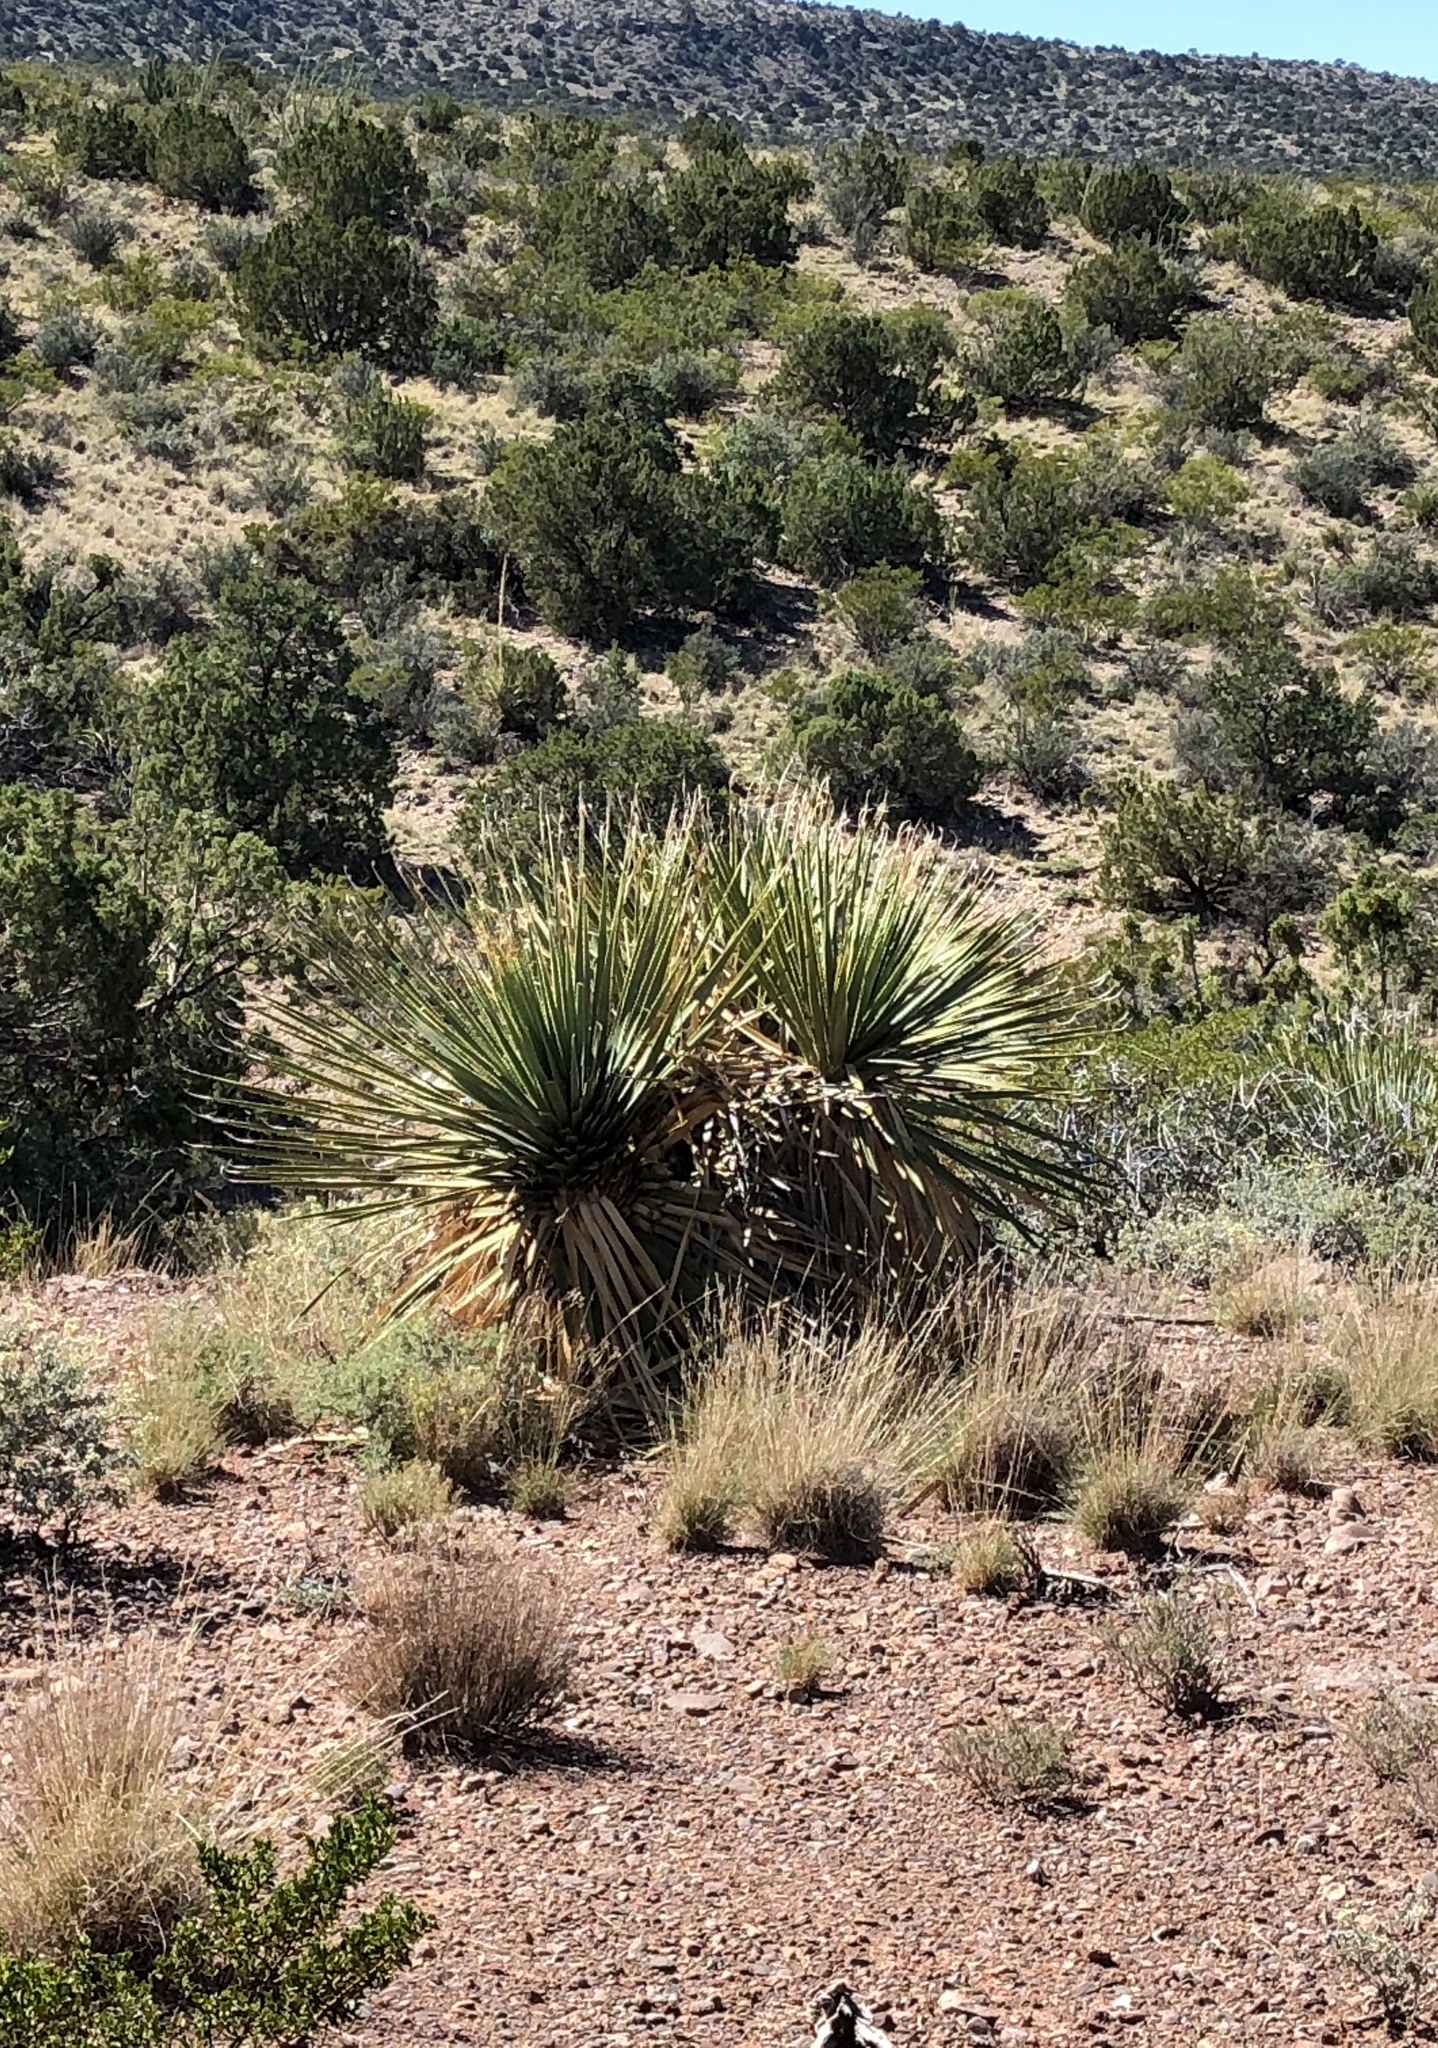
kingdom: Plantae
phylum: Tracheophyta
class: Liliopsida
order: Asparagales
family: Asparagaceae
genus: Dasylirion
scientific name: Dasylirion wheeleri
